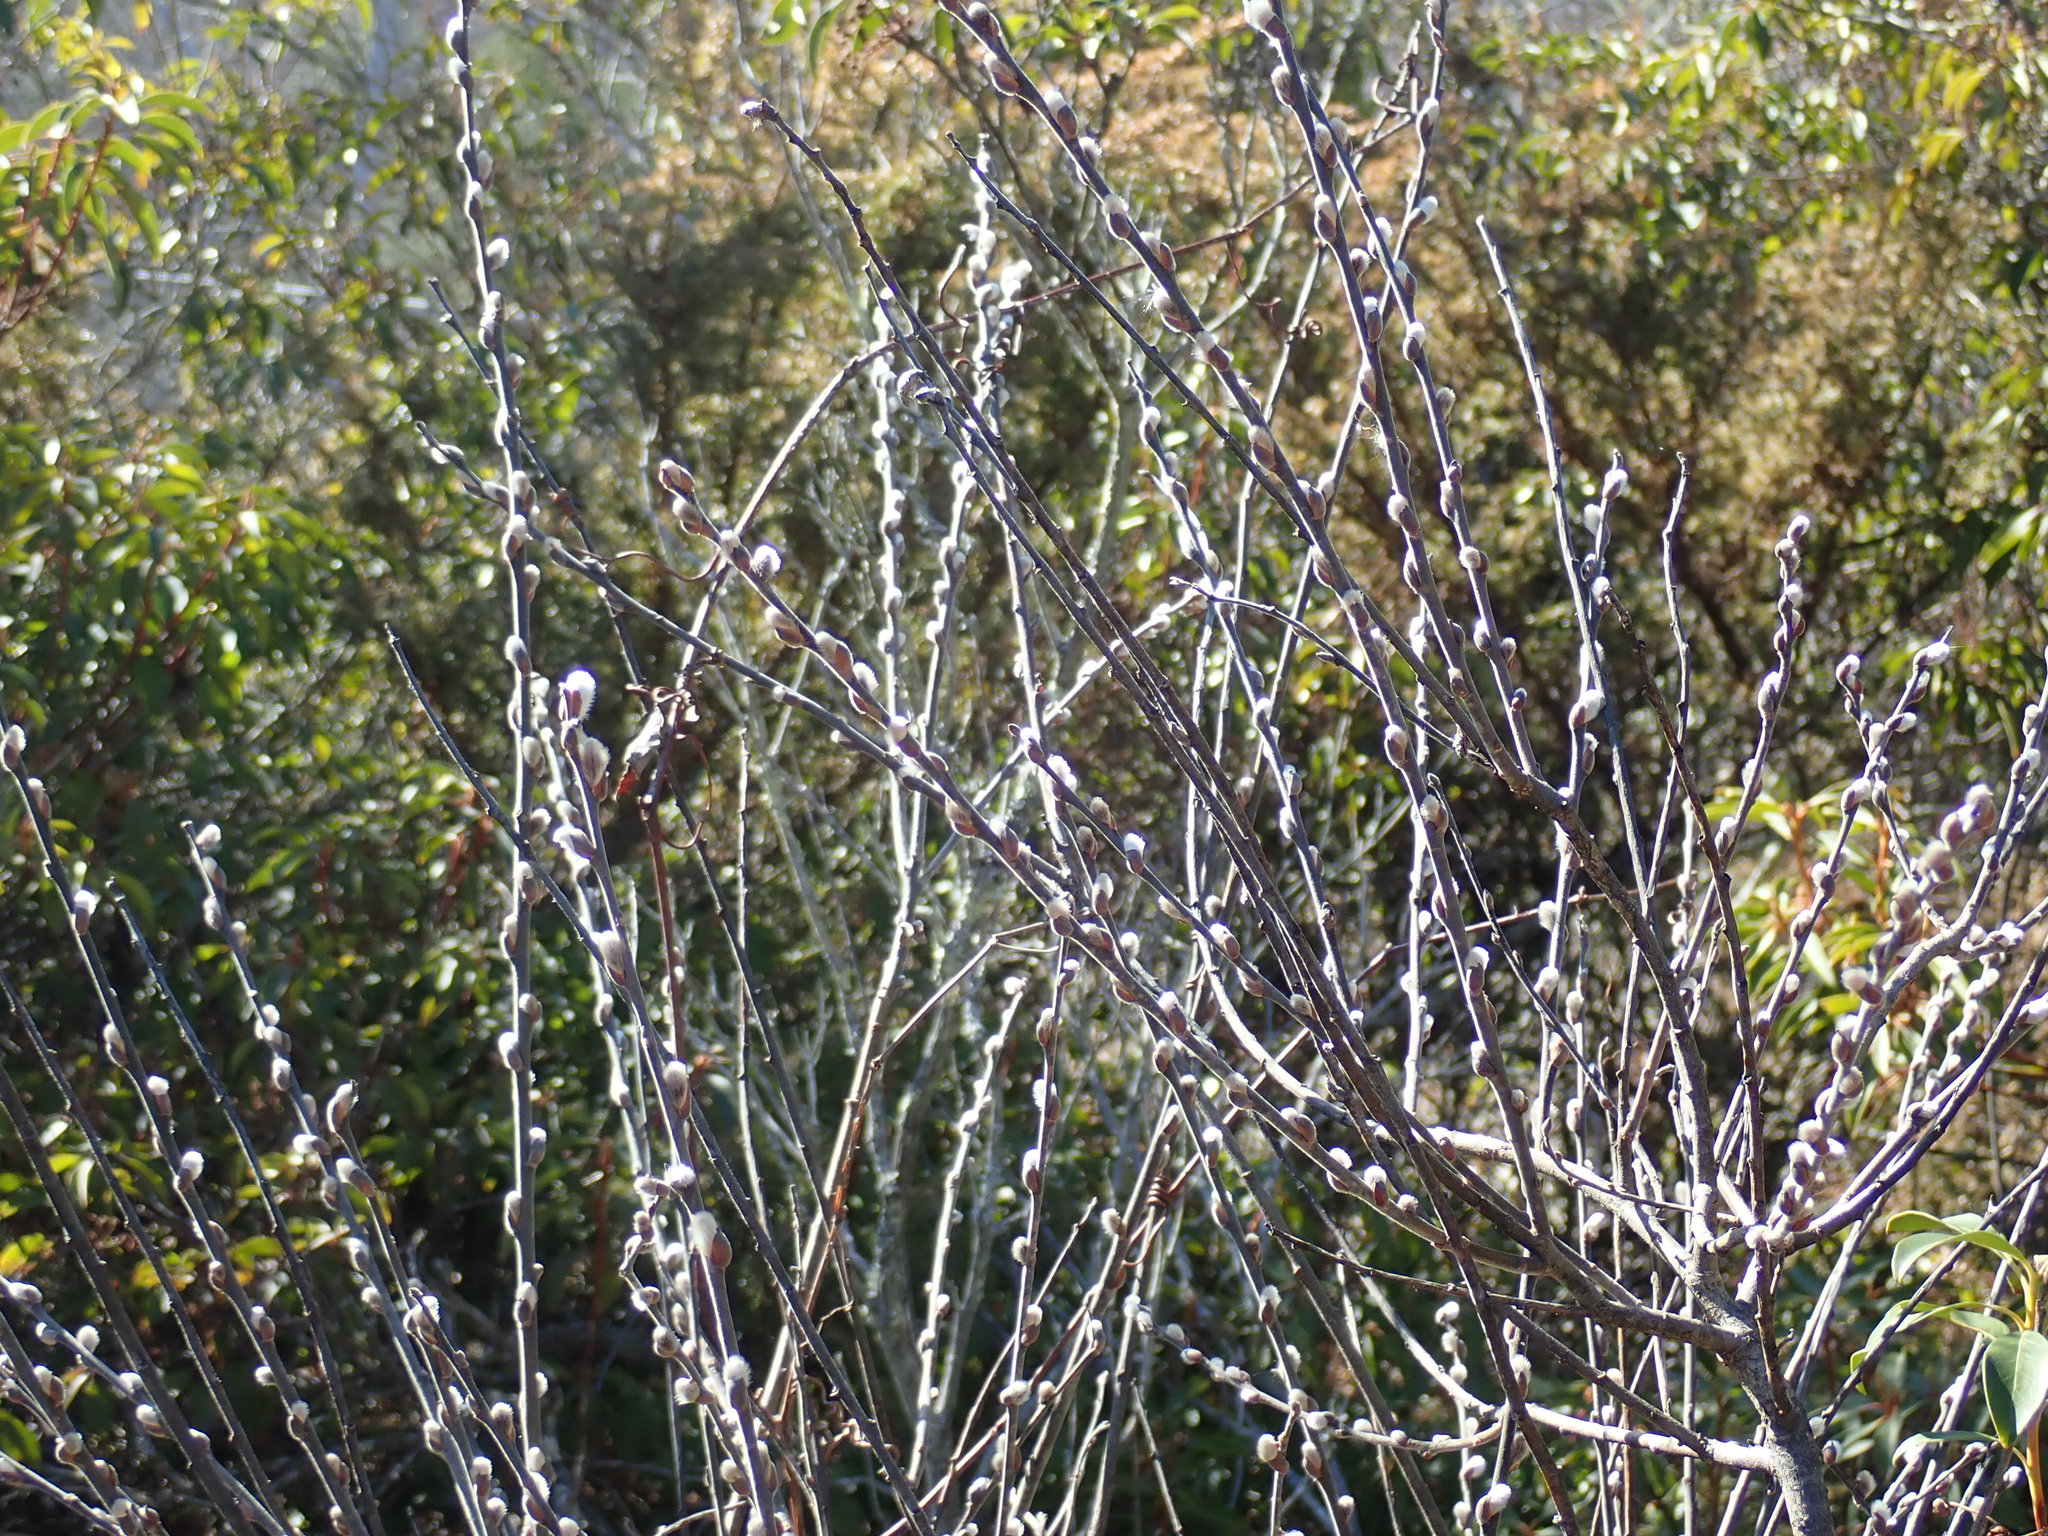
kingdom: Plantae
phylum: Tracheophyta
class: Magnoliopsida
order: Malpighiales
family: Salicaceae
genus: Salix
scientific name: Salix
